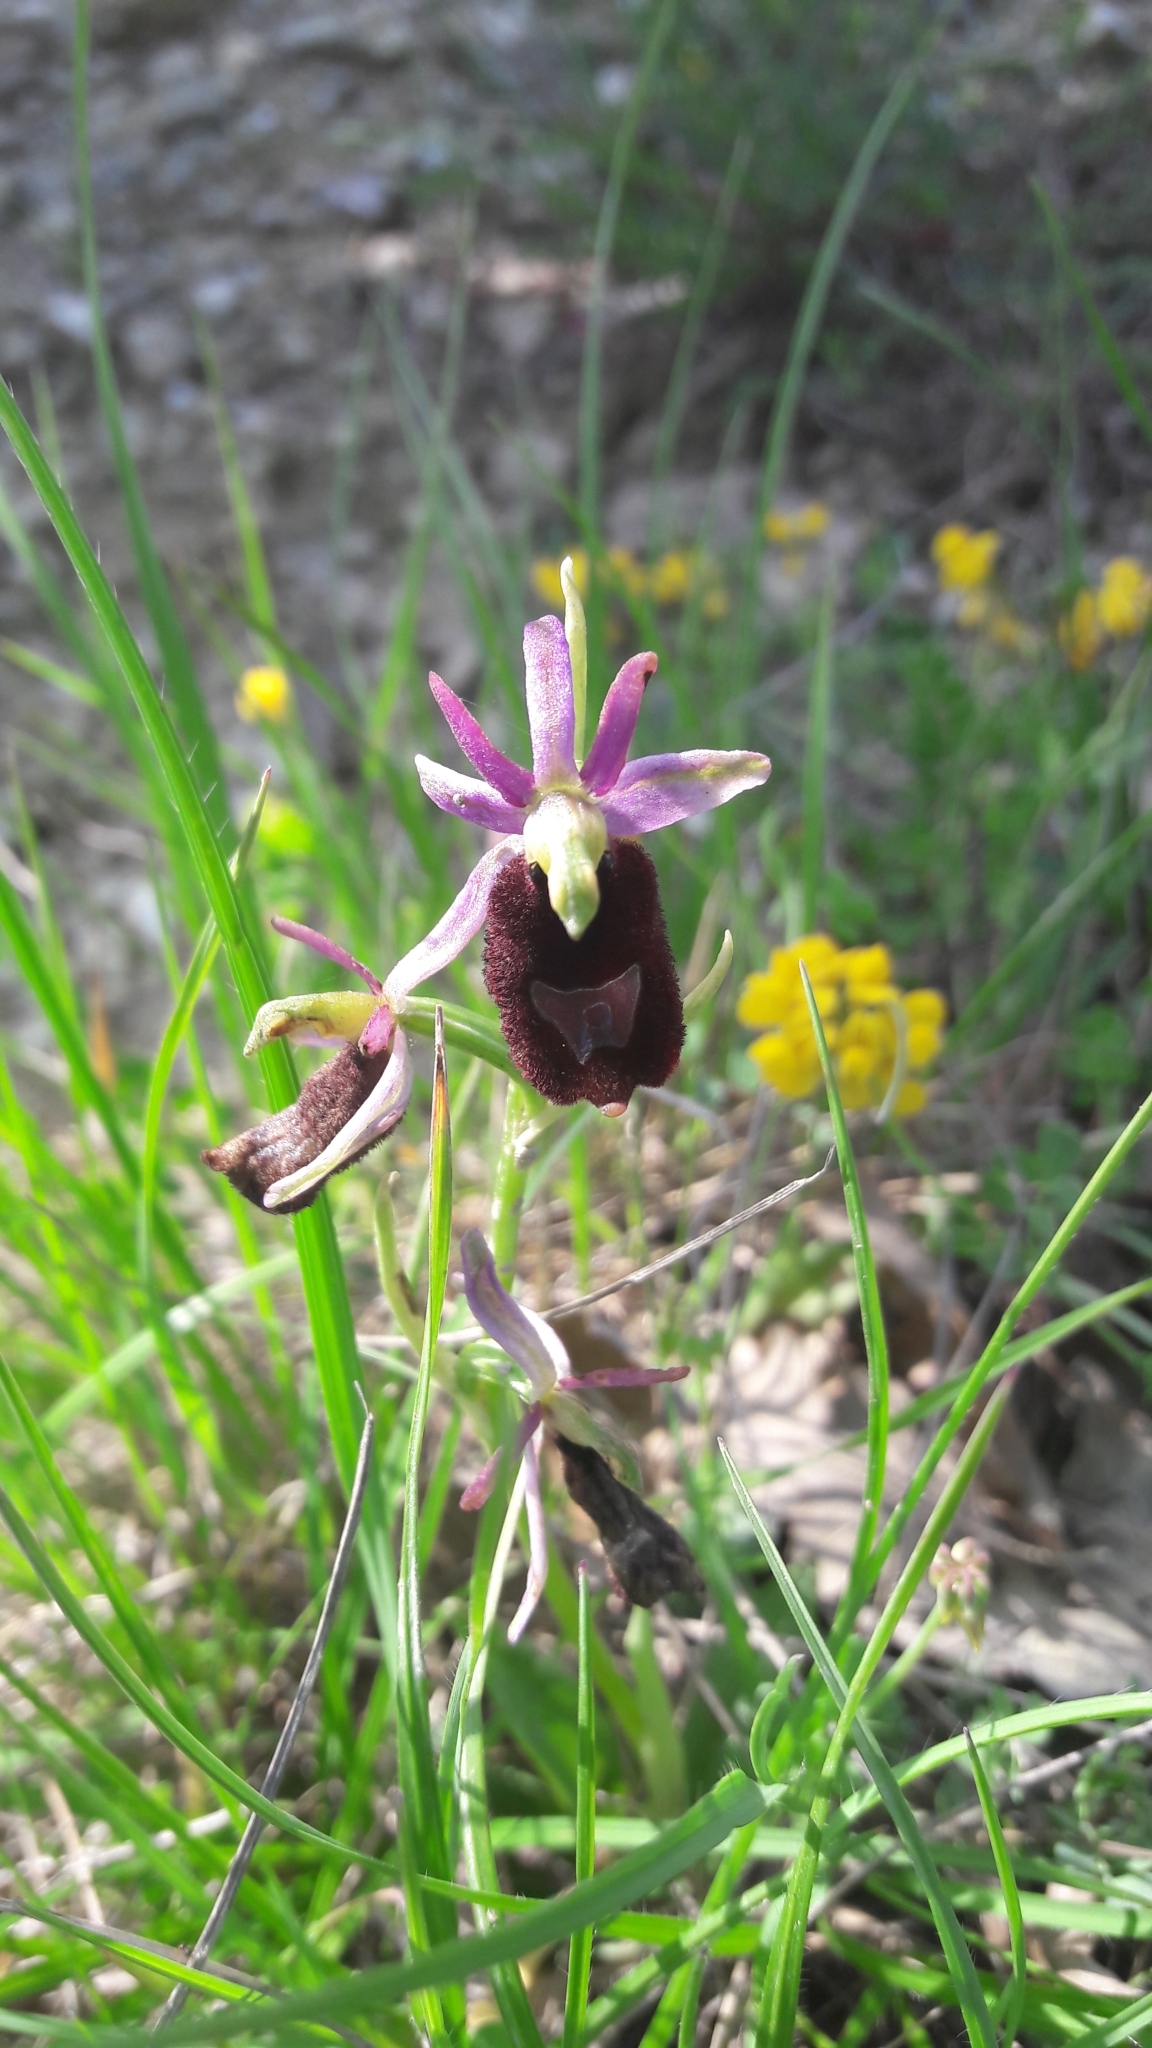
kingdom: Plantae
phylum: Tracheophyta
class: Liliopsida
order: Asparagales
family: Orchidaceae
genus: Ophrys
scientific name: Ophrys bertolonii
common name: Bertoloni's bee orchid
